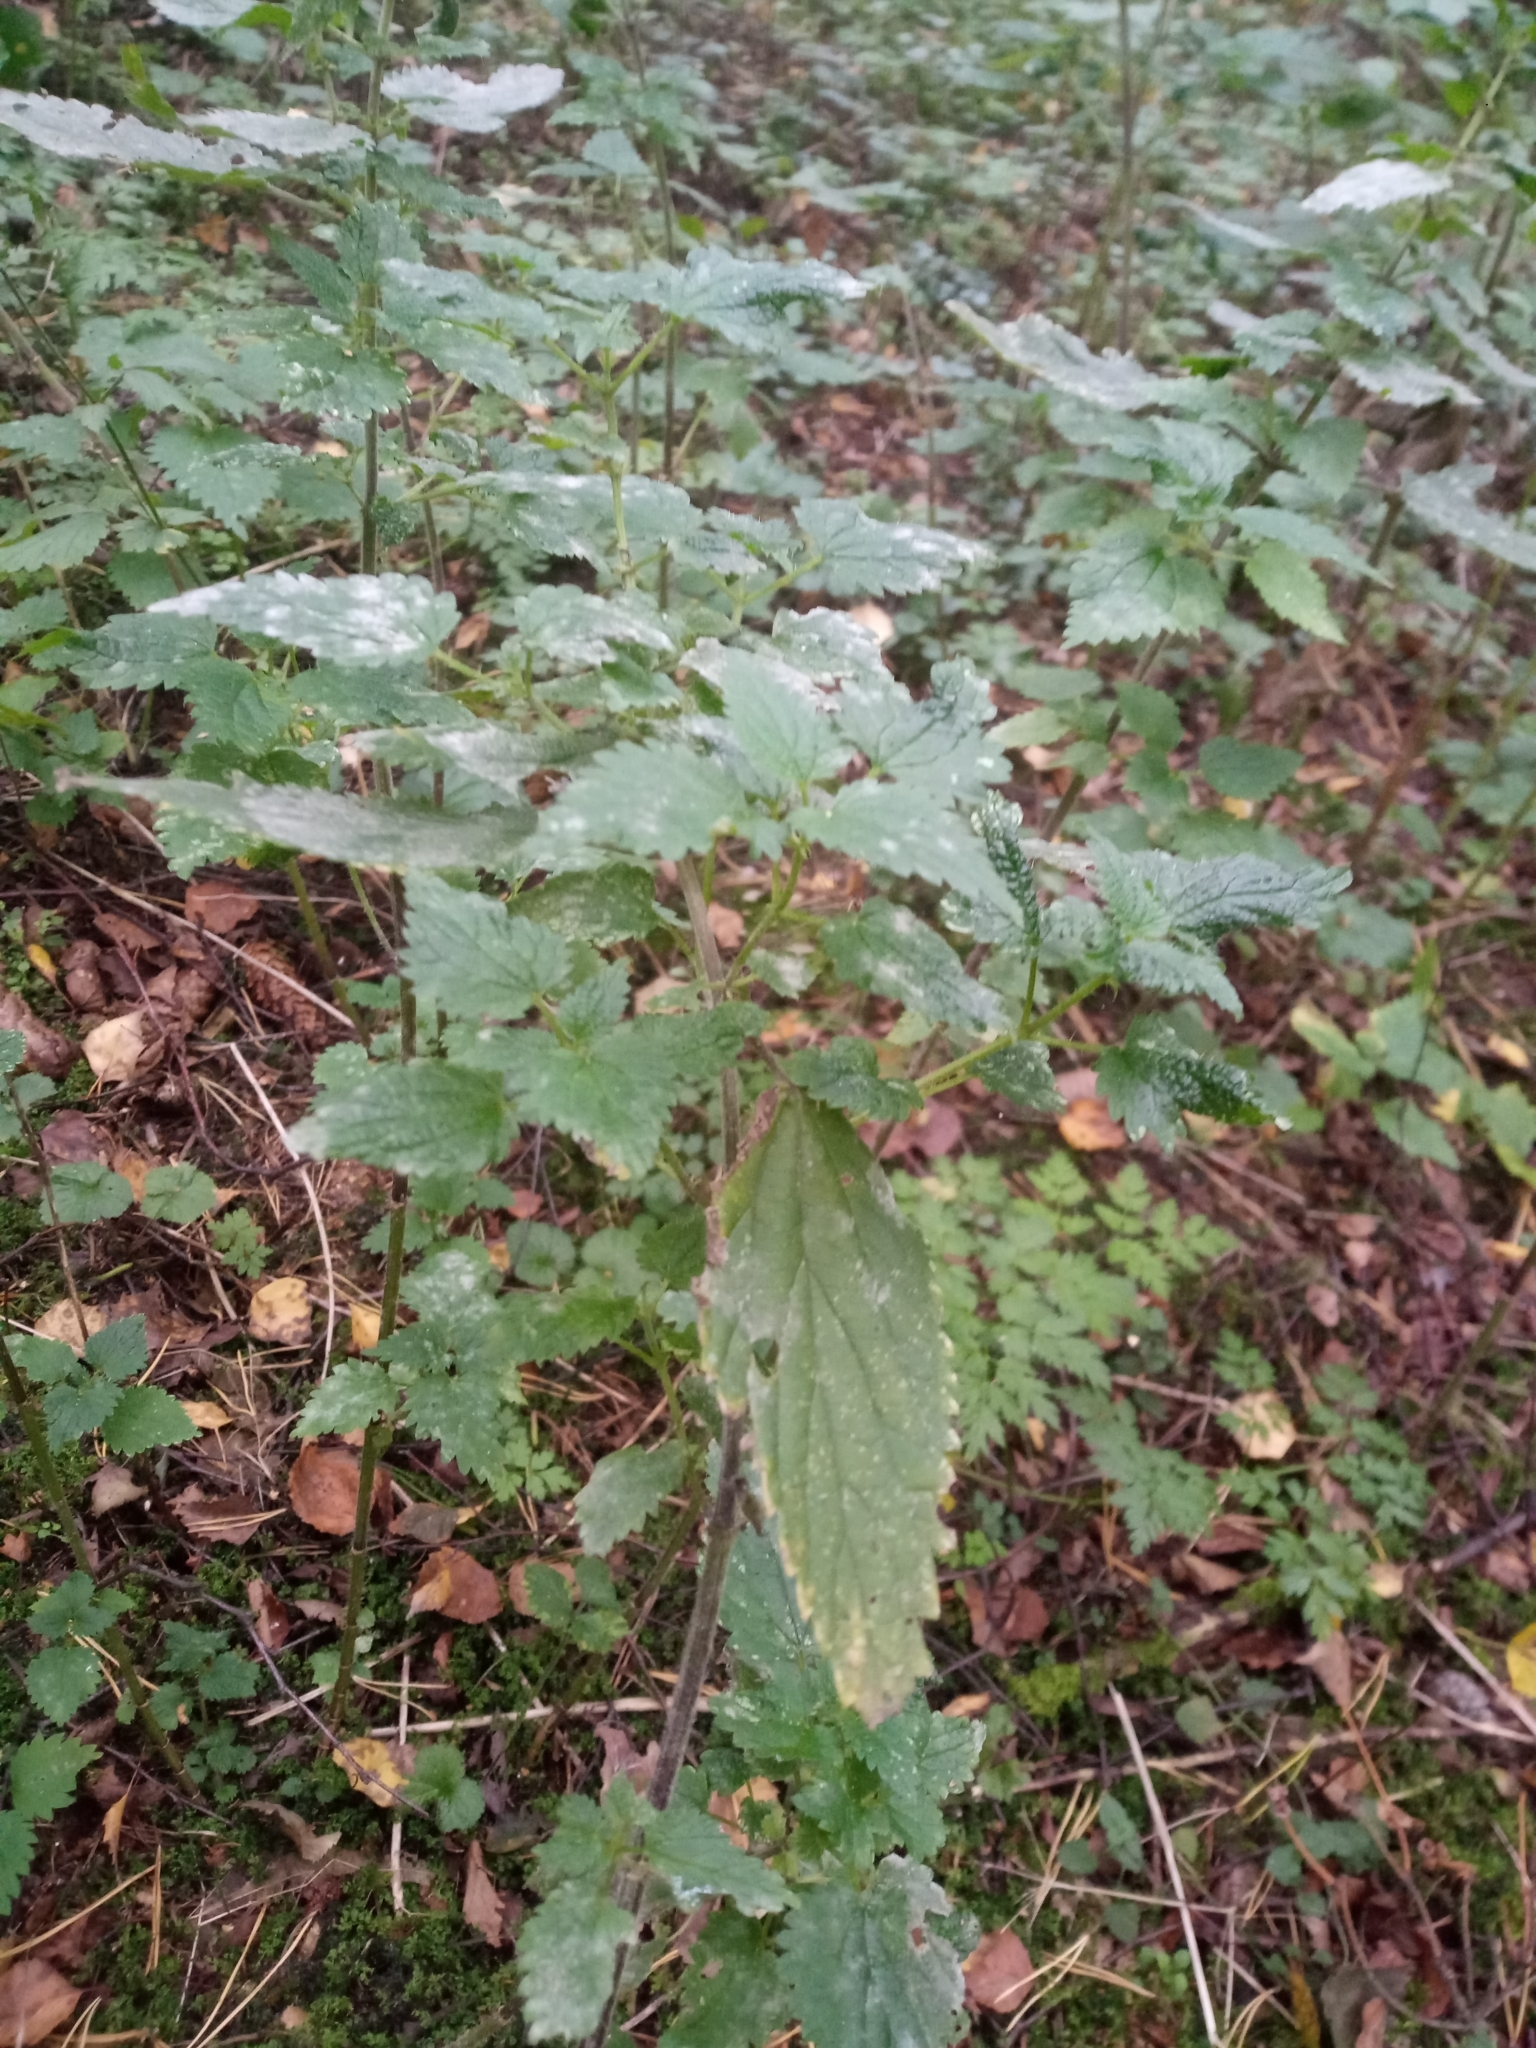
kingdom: Plantae
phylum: Tracheophyta
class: Magnoliopsida
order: Rosales
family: Urticaceae
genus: Urtica
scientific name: Urtica dioica
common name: Common nettle
